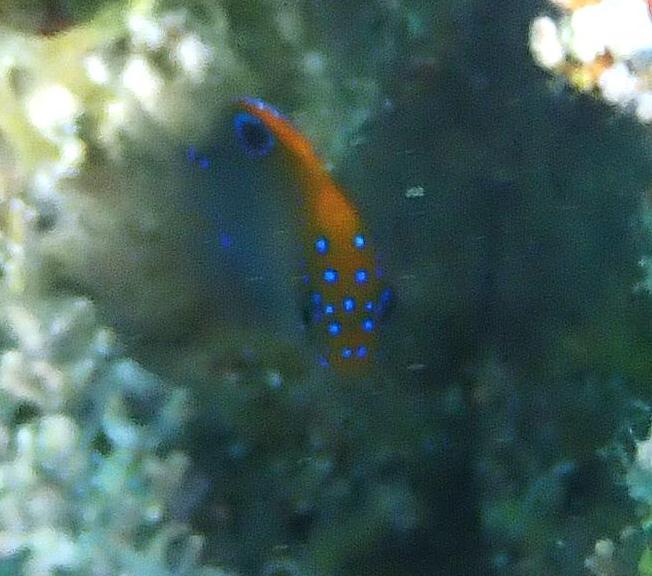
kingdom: Animalia
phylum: Chordata
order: Perciformes
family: Pomacentridae
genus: Stegastes
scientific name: Stegastes adustus
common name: Dusky damselfish
